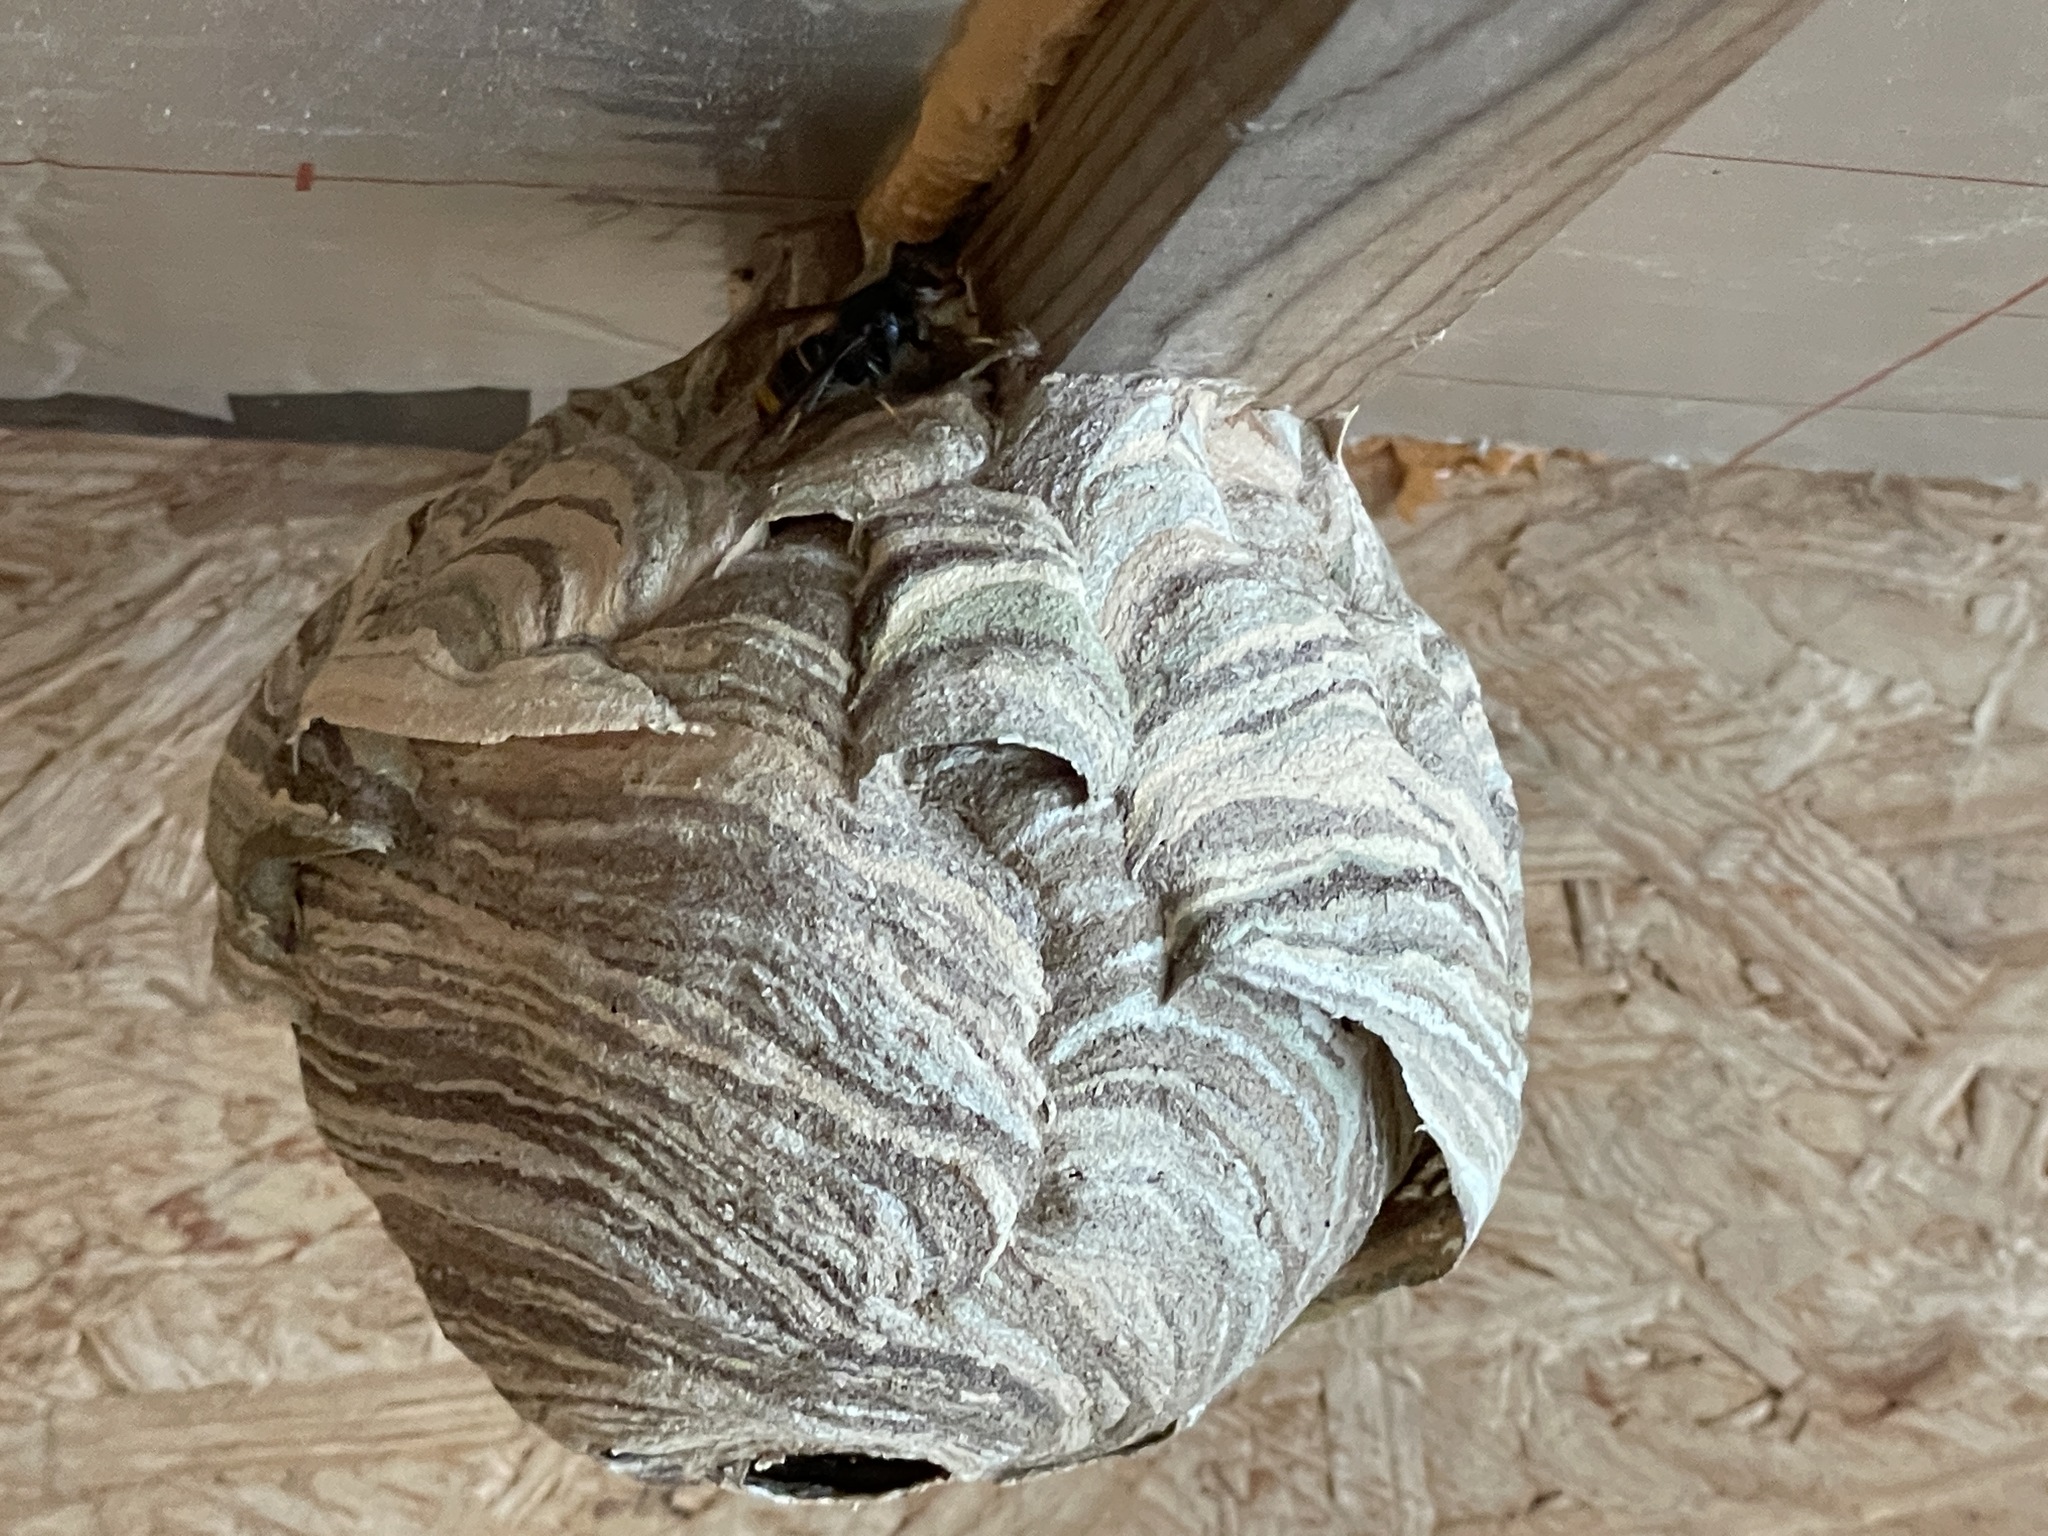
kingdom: Animalia
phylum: Arthropoda
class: Insecta
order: Hymenoptera
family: Vespidae
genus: Vespa
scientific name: Vespa velutina
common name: Asian hornet
